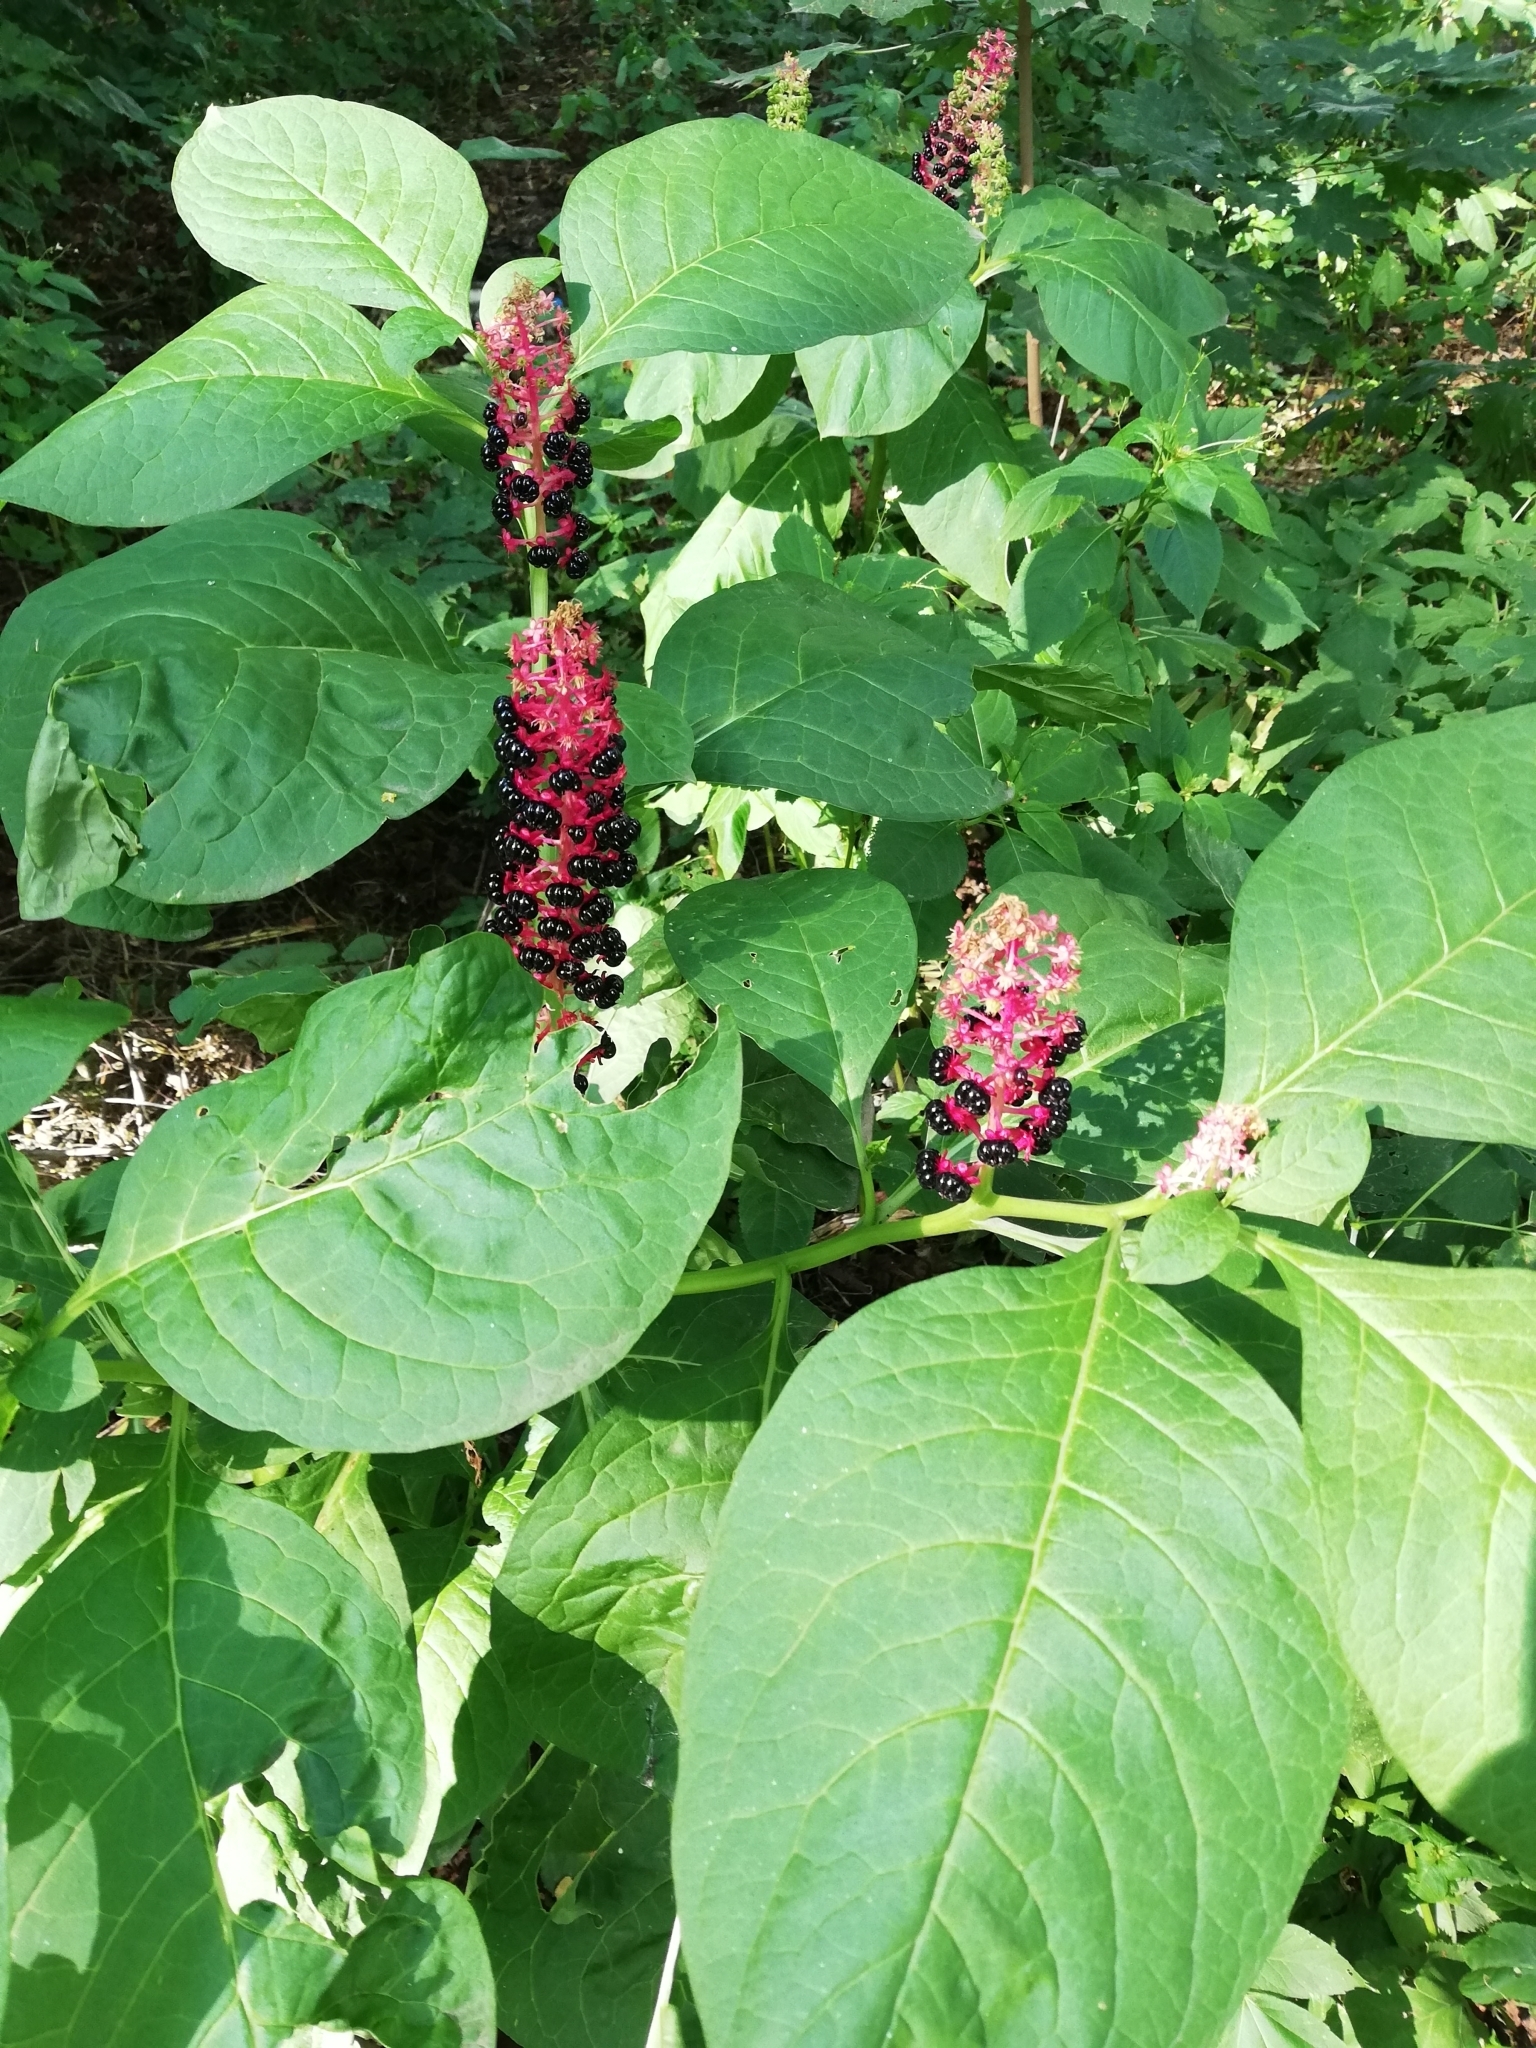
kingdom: Plantae
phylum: Tracheophyta
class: Magnoliopsida
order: Caryophyllales
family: Phytolaccaceae
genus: Phytolacca
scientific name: Phytolacca acinosa
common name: Indian pokeweed
